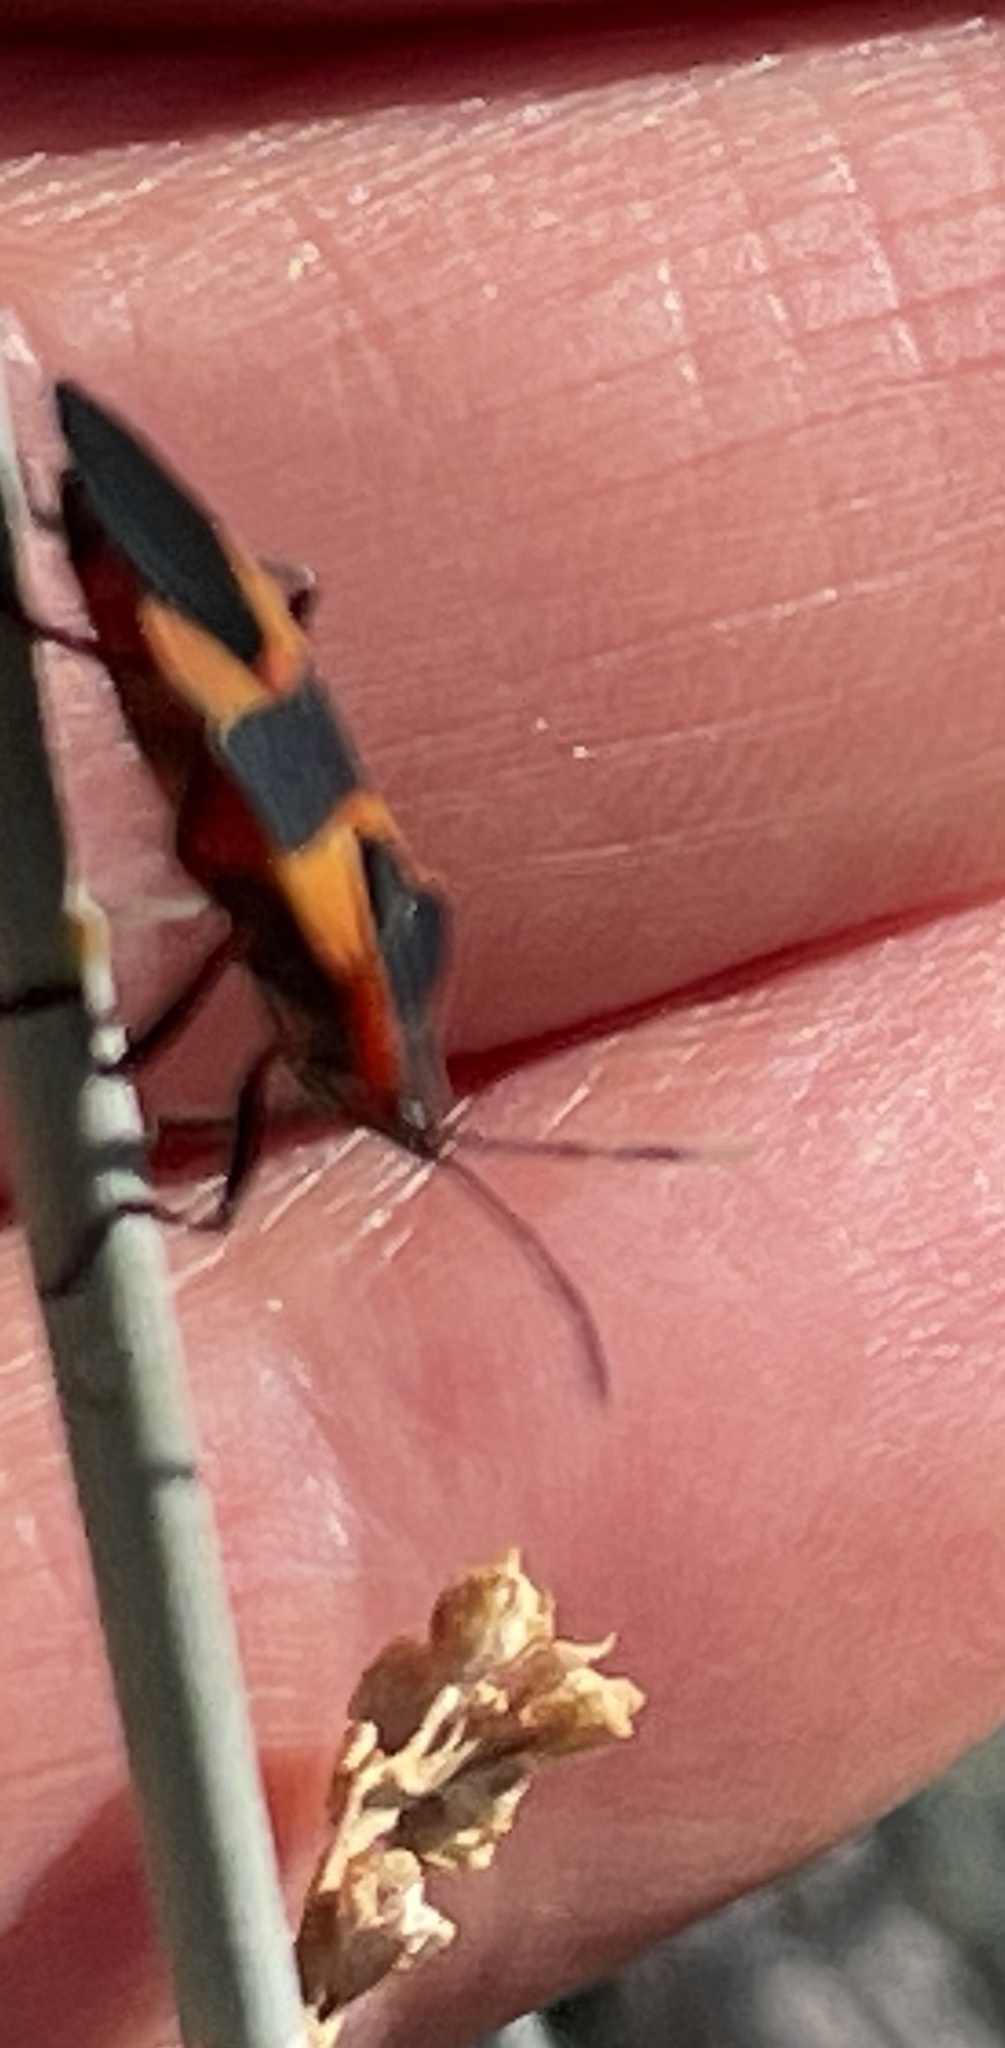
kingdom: Animalia
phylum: Arthropoda
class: Insecta
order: Hemiptera
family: Lygaeidae
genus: Oncopeltus
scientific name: Oncopeltus fasciatus
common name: Large milkweed bug
